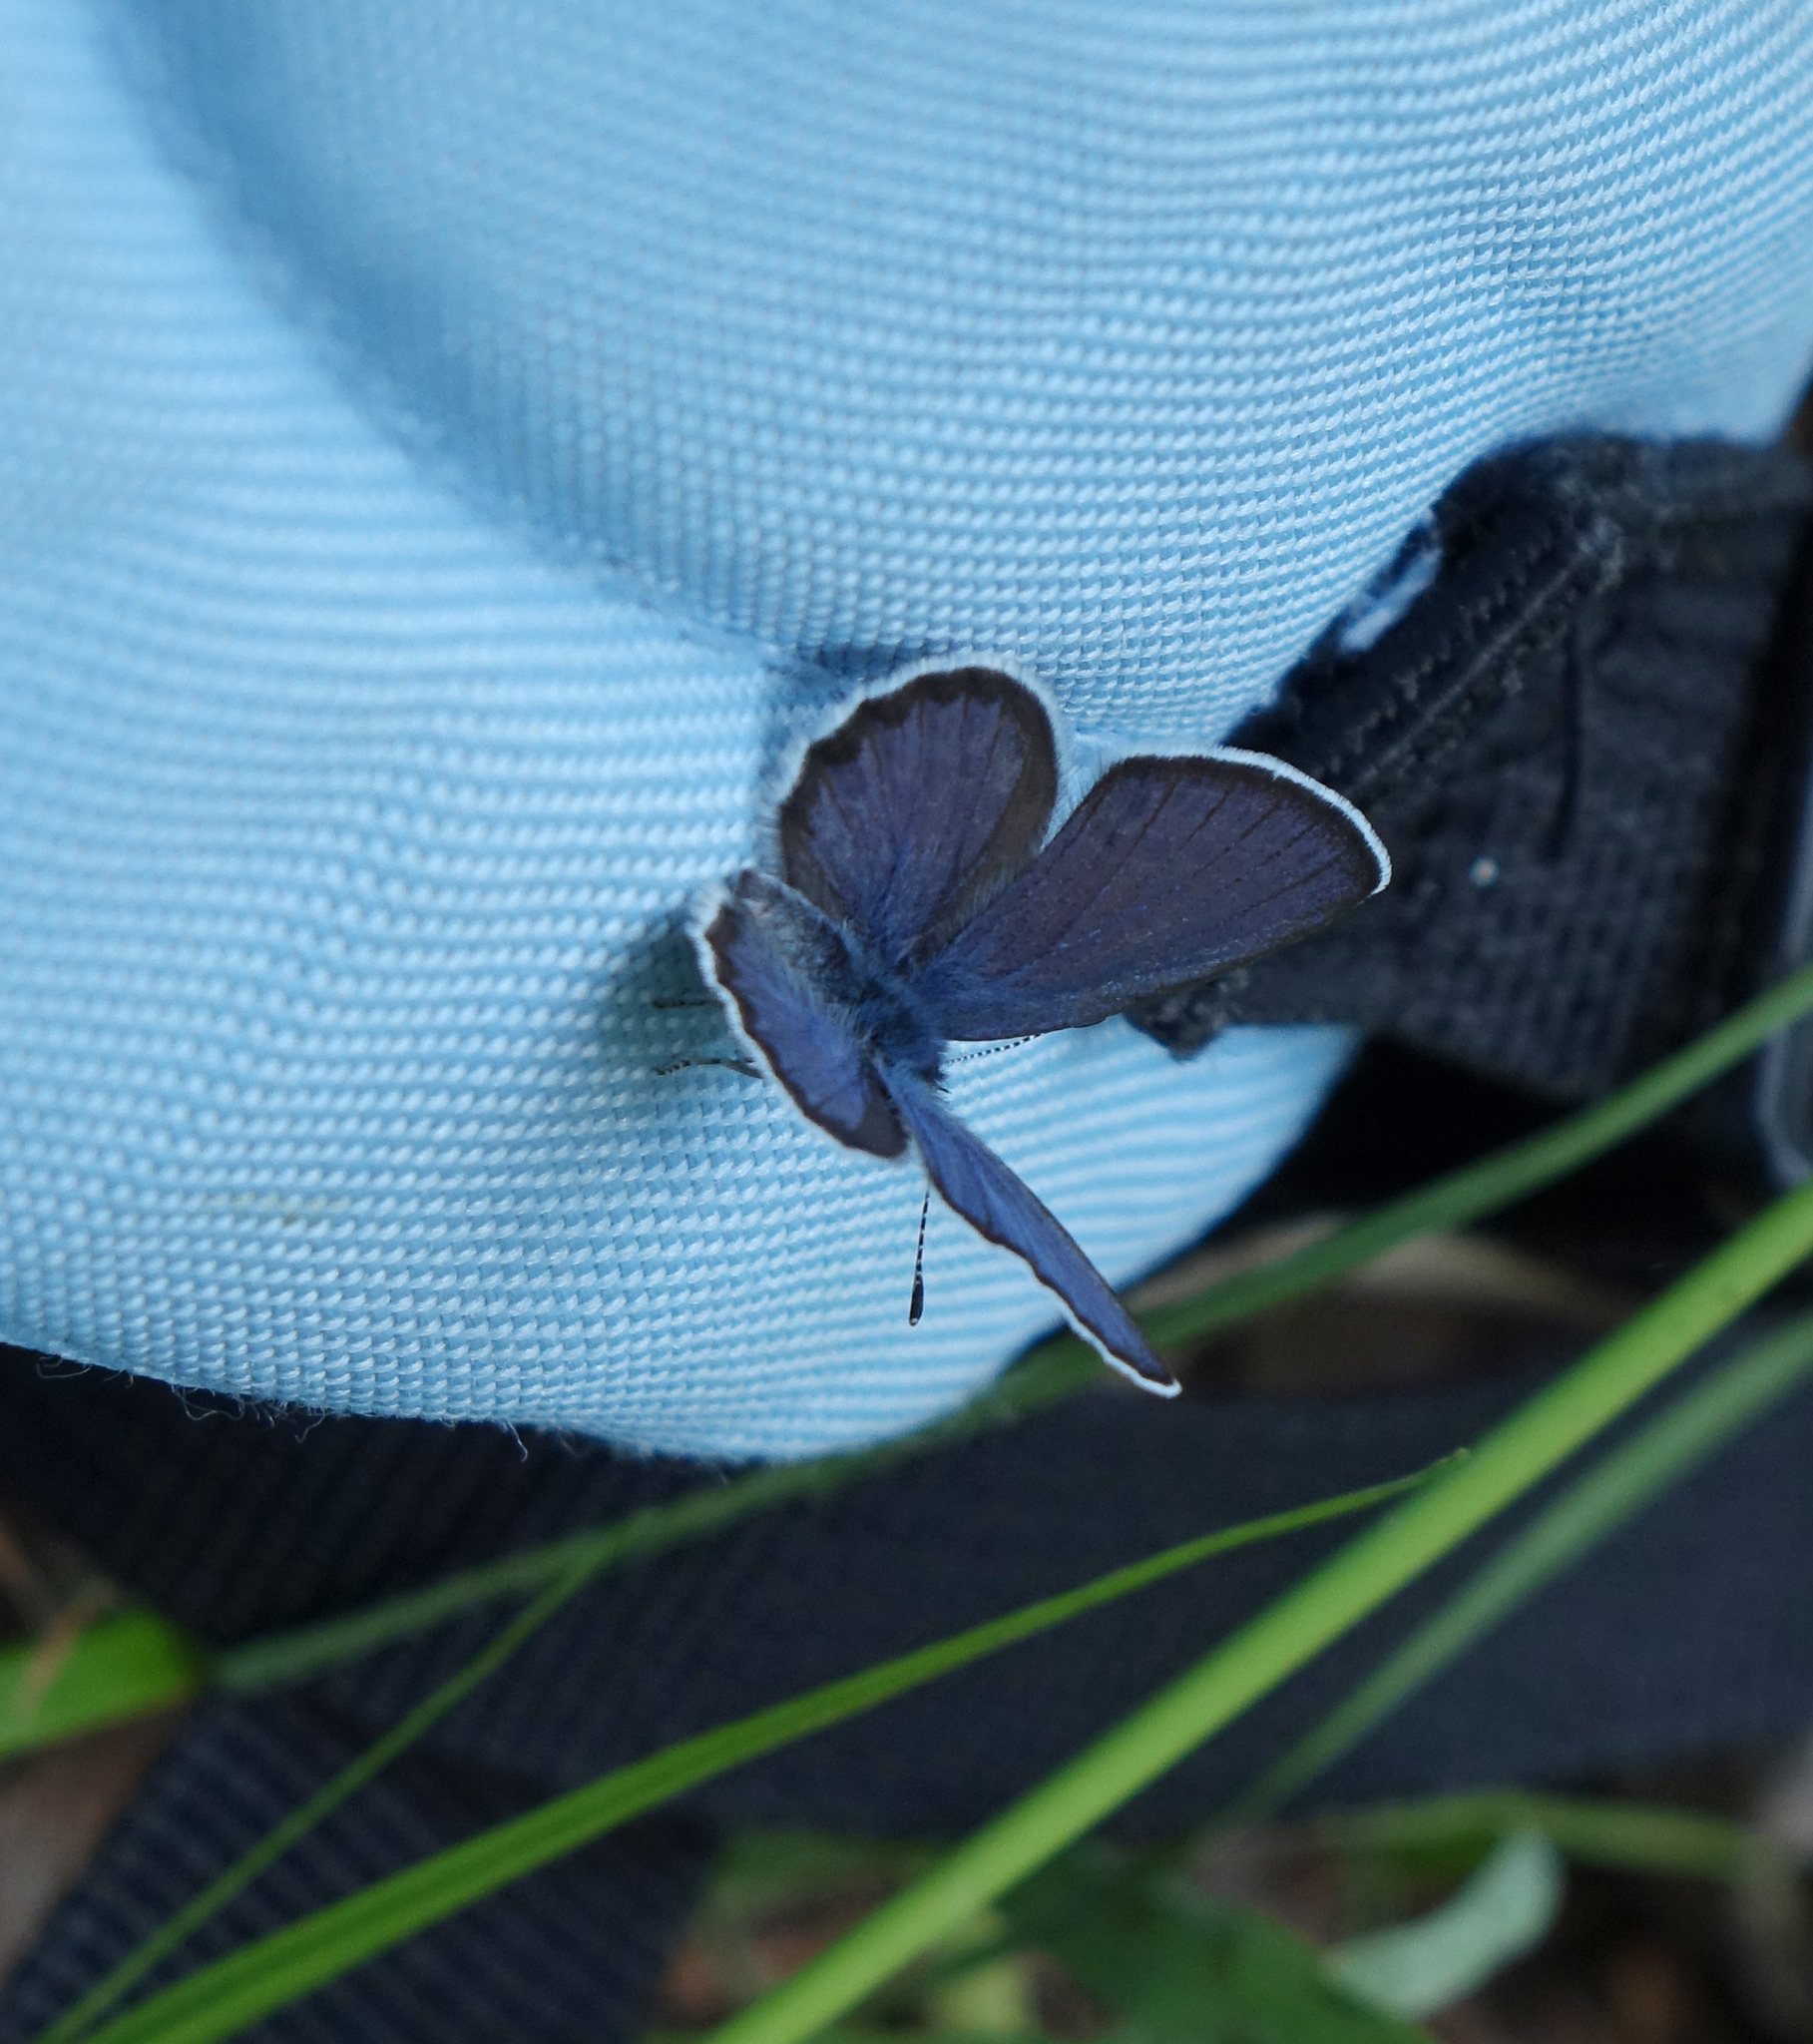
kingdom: Animalia
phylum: Arthropoda
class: Insecta
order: Lepidoptera
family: Lycaenidae
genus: Vacciniina
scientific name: Vacciniina optilete
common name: Cranberry blue
